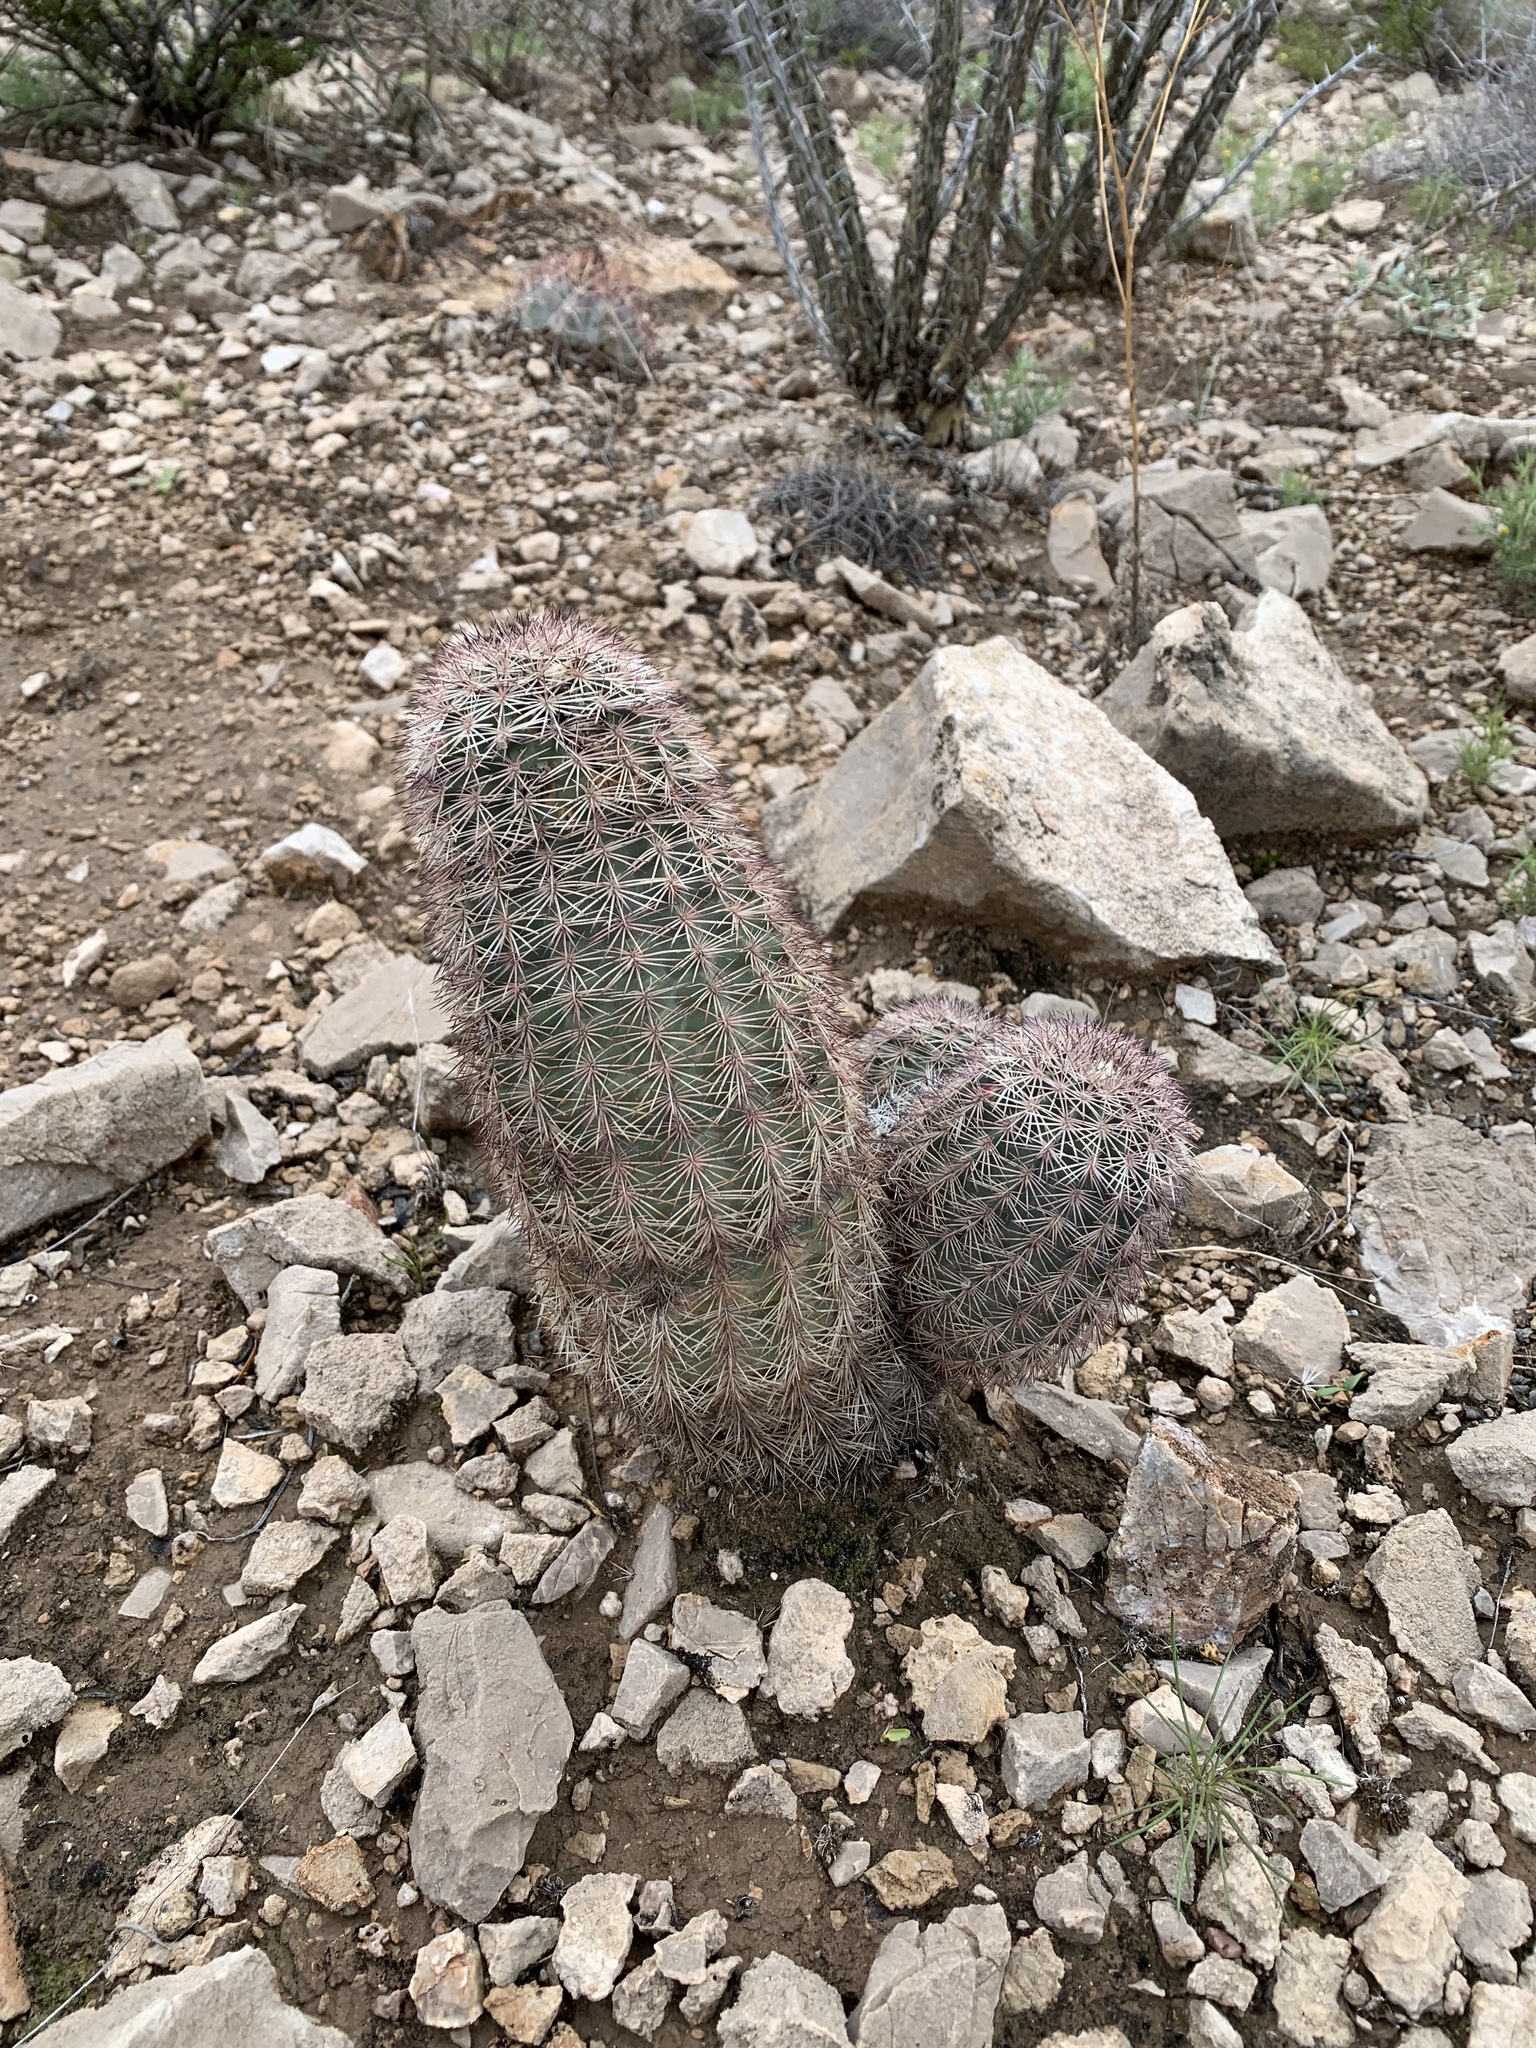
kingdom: Plantae
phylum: Tracheophyta
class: Magnoliopsida
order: Caryophyllales
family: Cactaceae
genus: Echinocereus
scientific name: Echinocereus dasyacanthus
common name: Spiny hedgehog cactus
